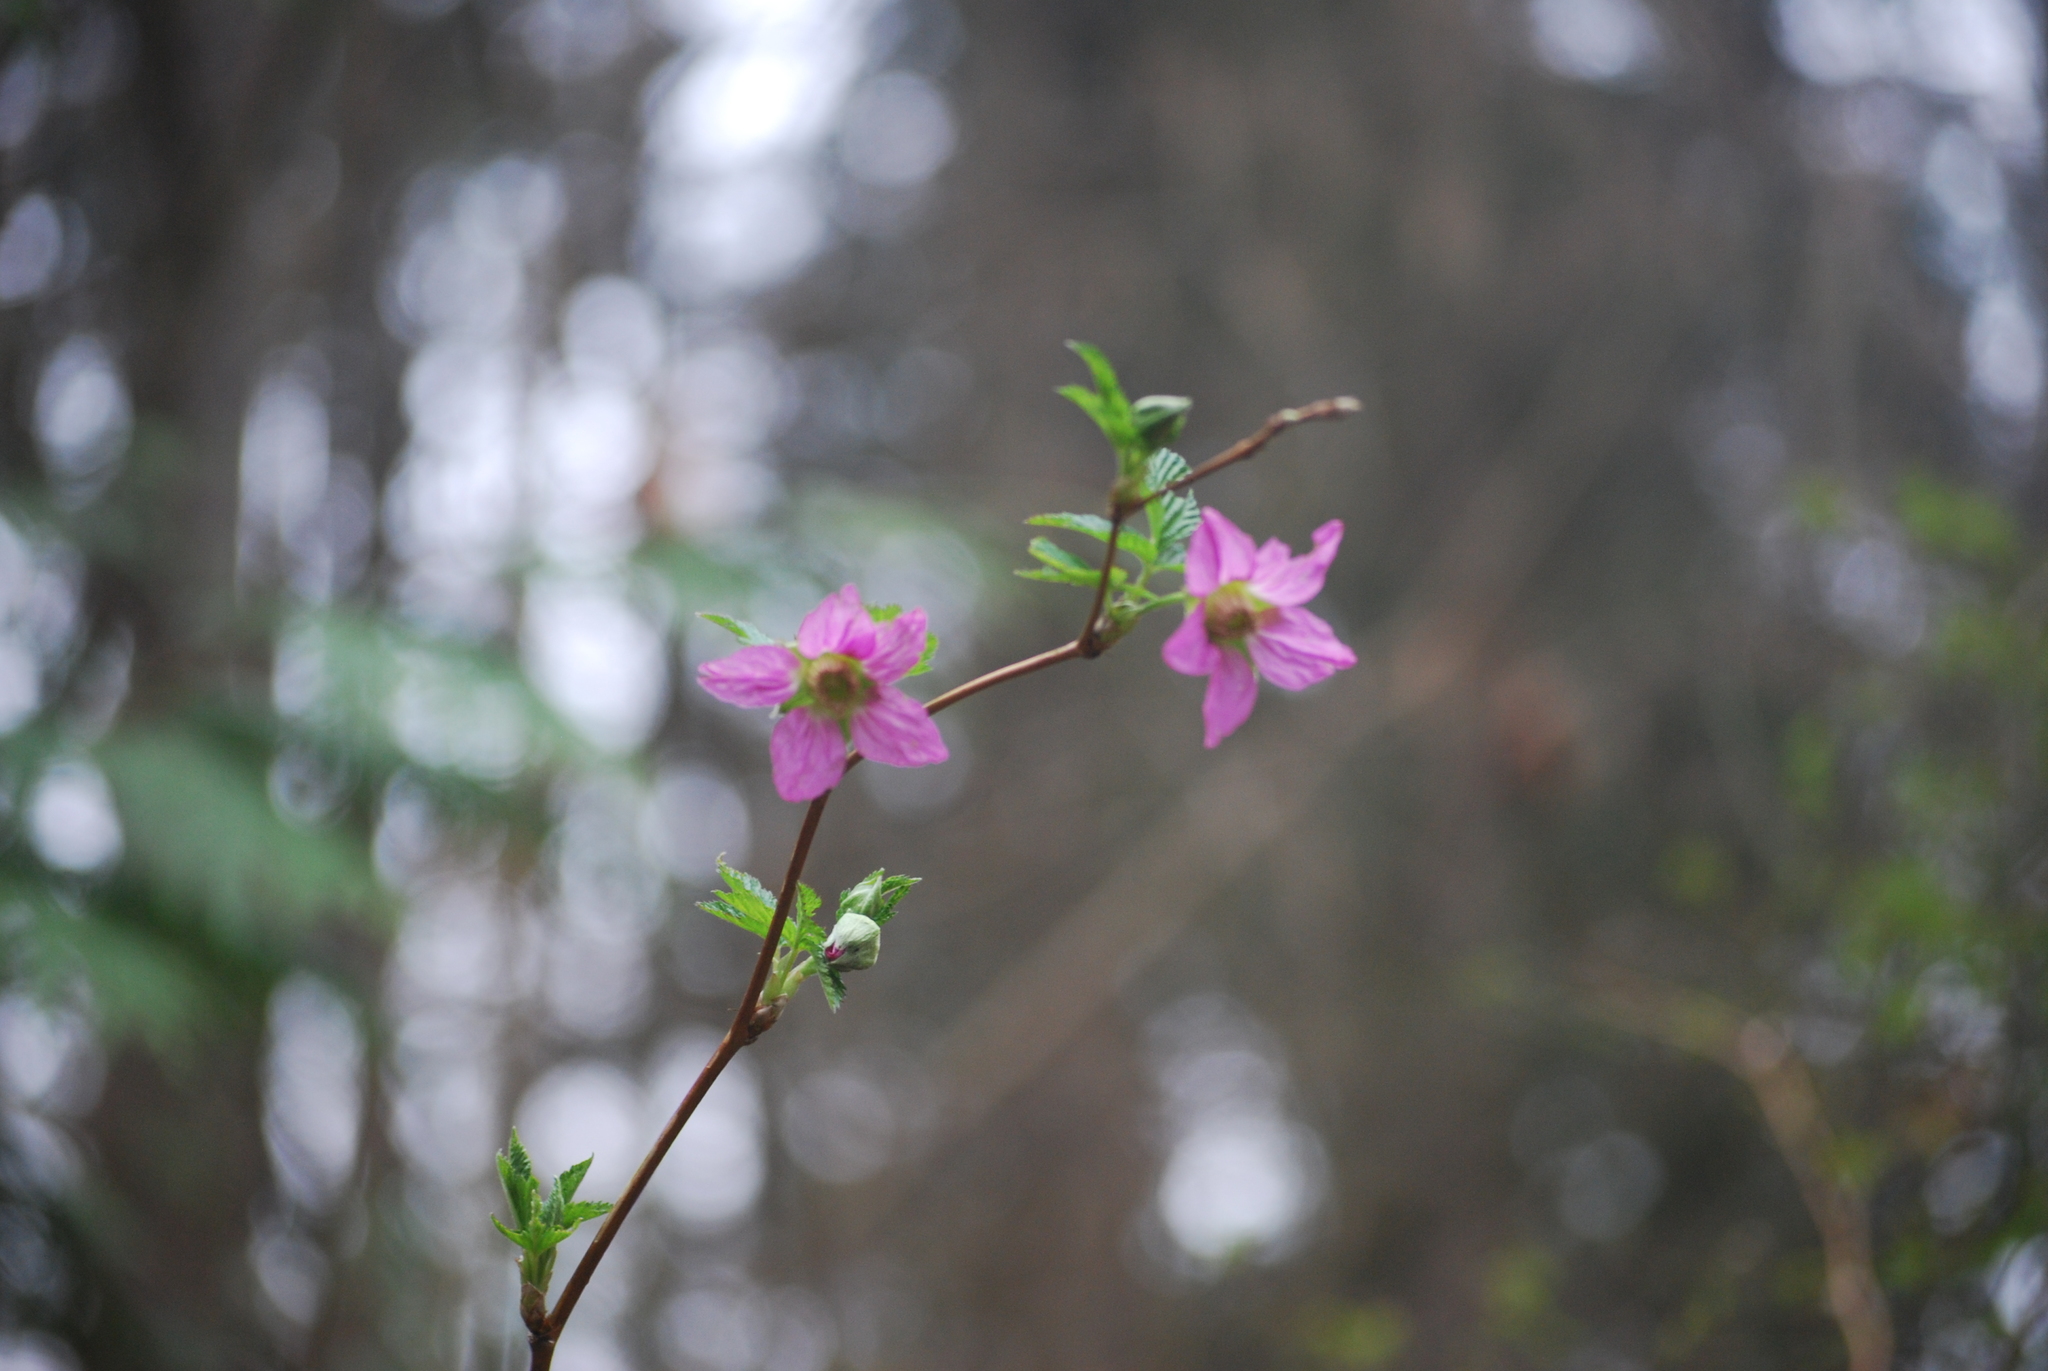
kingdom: Plantae
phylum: Tracheophyta
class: Magnoliopsida
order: Rosales
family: Rosaceae
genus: Rubus
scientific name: Rubus spectabilis
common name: Salmonberry
